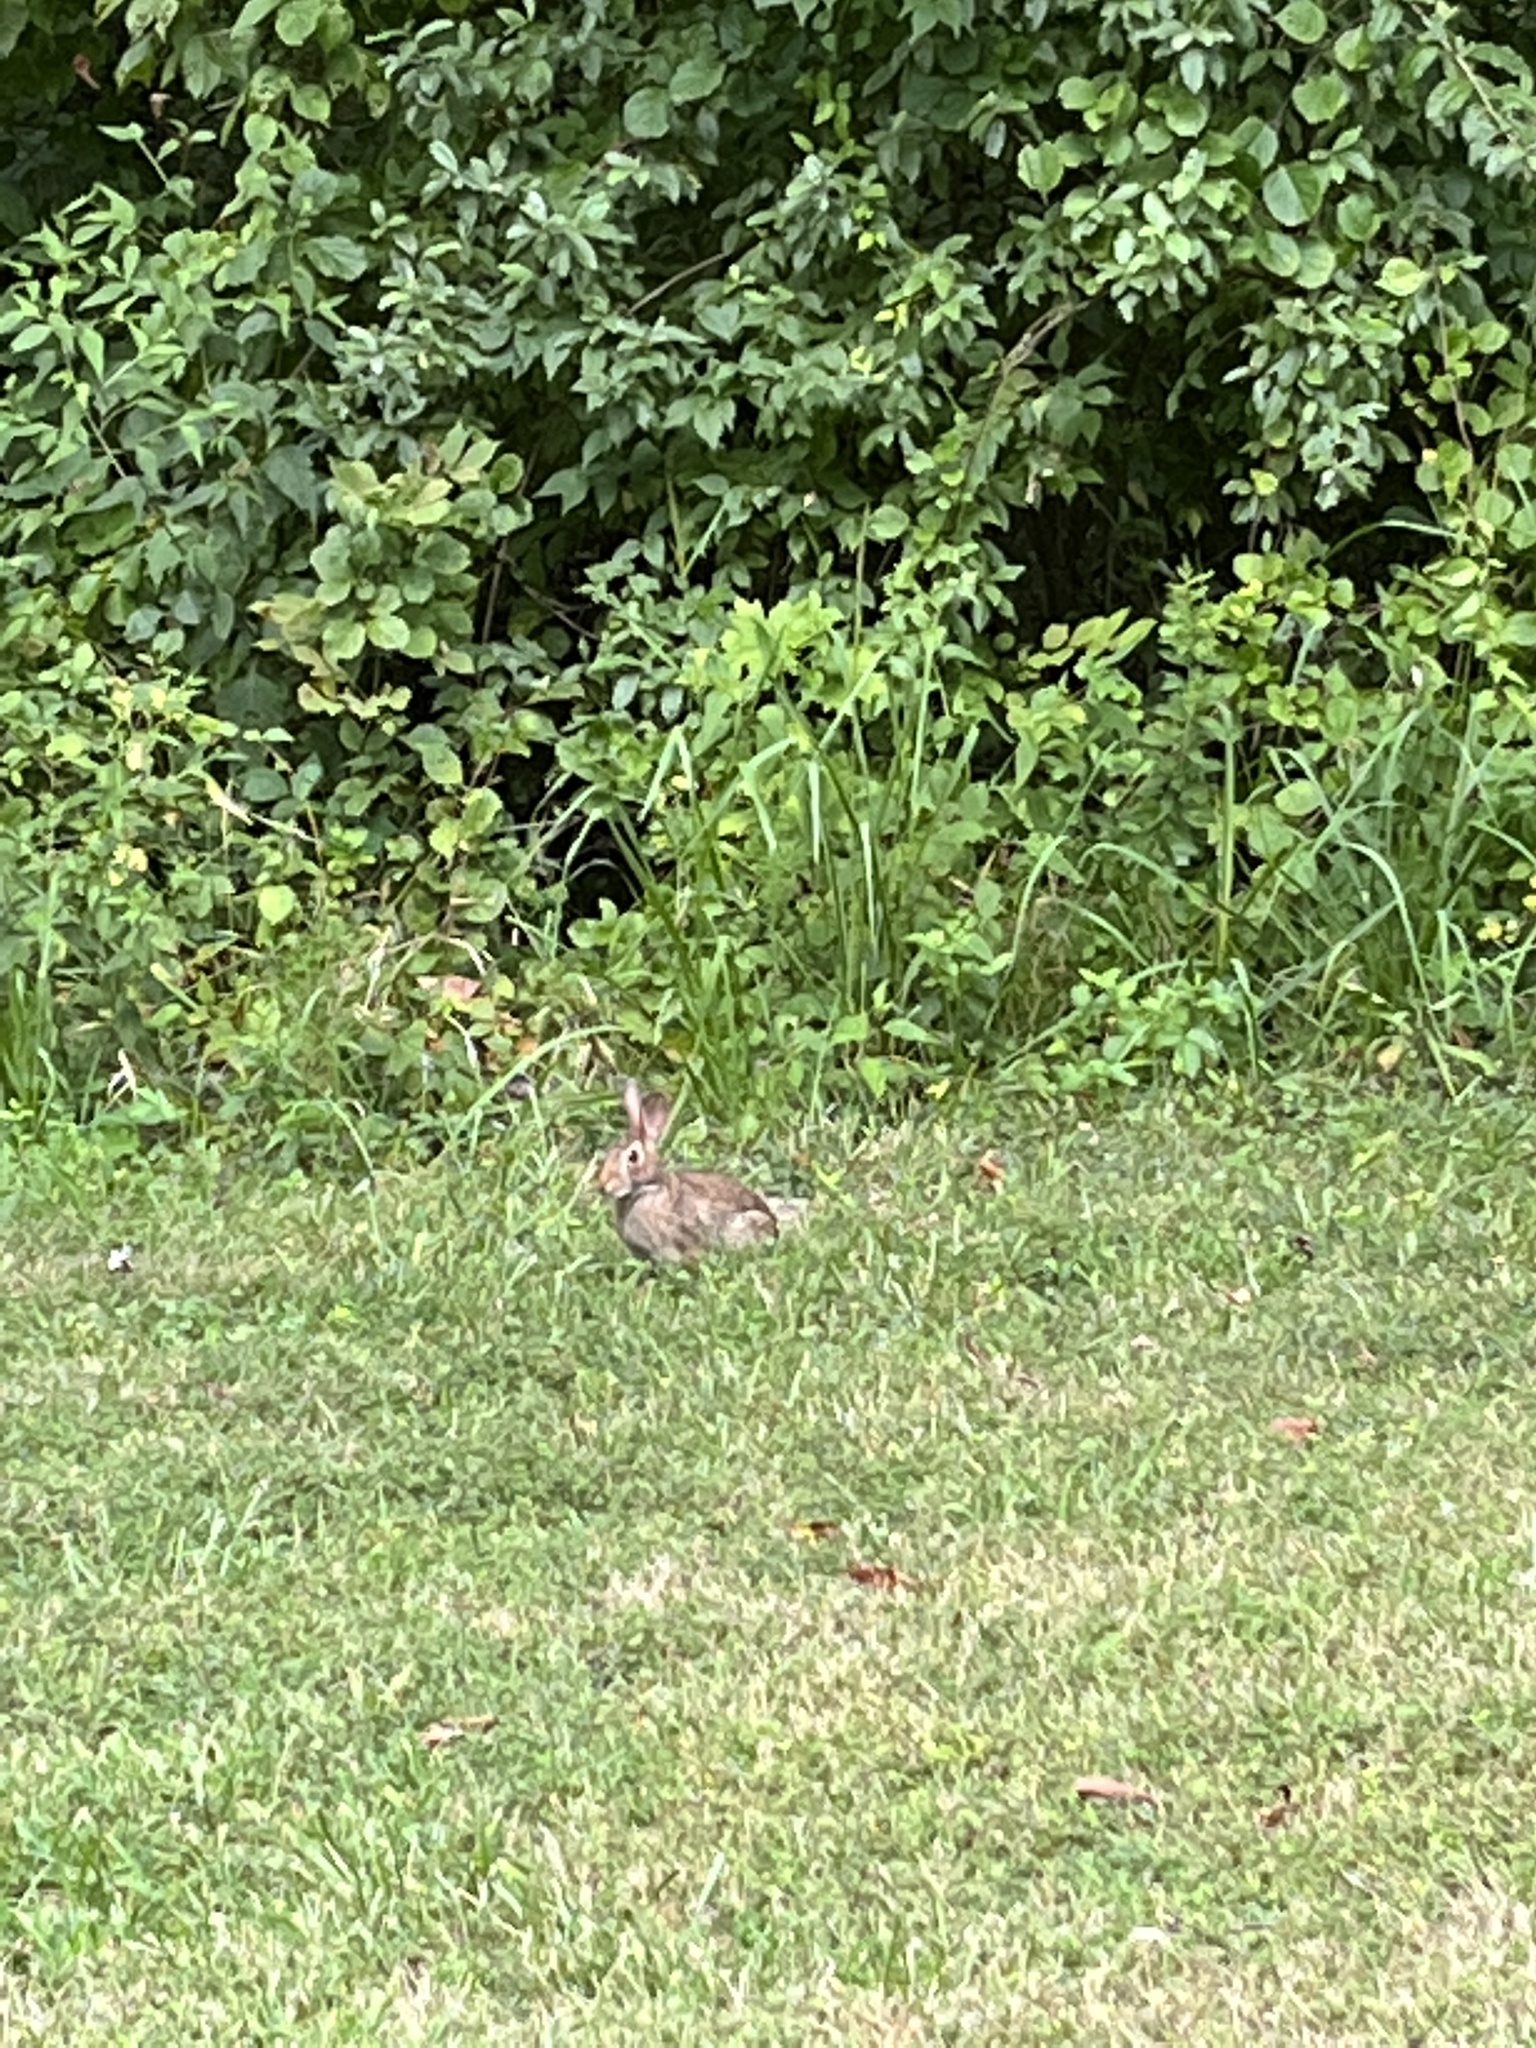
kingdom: Animalia
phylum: Chordata
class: Mammalia
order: Lagomorpha
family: Leporidae
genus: Sylvilagus
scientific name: Sylvilagus floridanus
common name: Eastern cottontail
